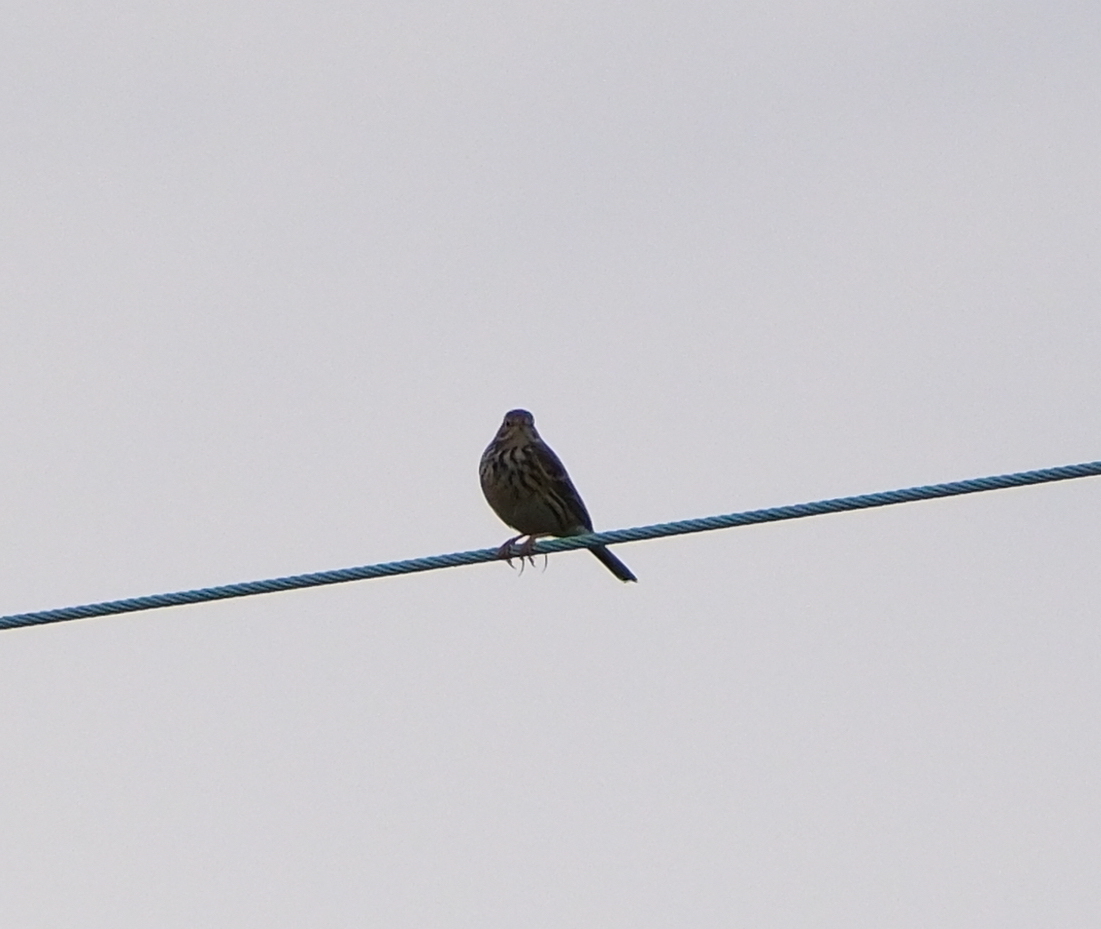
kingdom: Animalia
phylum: Chordata
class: Aves
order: Passeriformes
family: Motacillidae
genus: Anthus
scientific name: Anthus pratensis
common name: Meadow pipit
